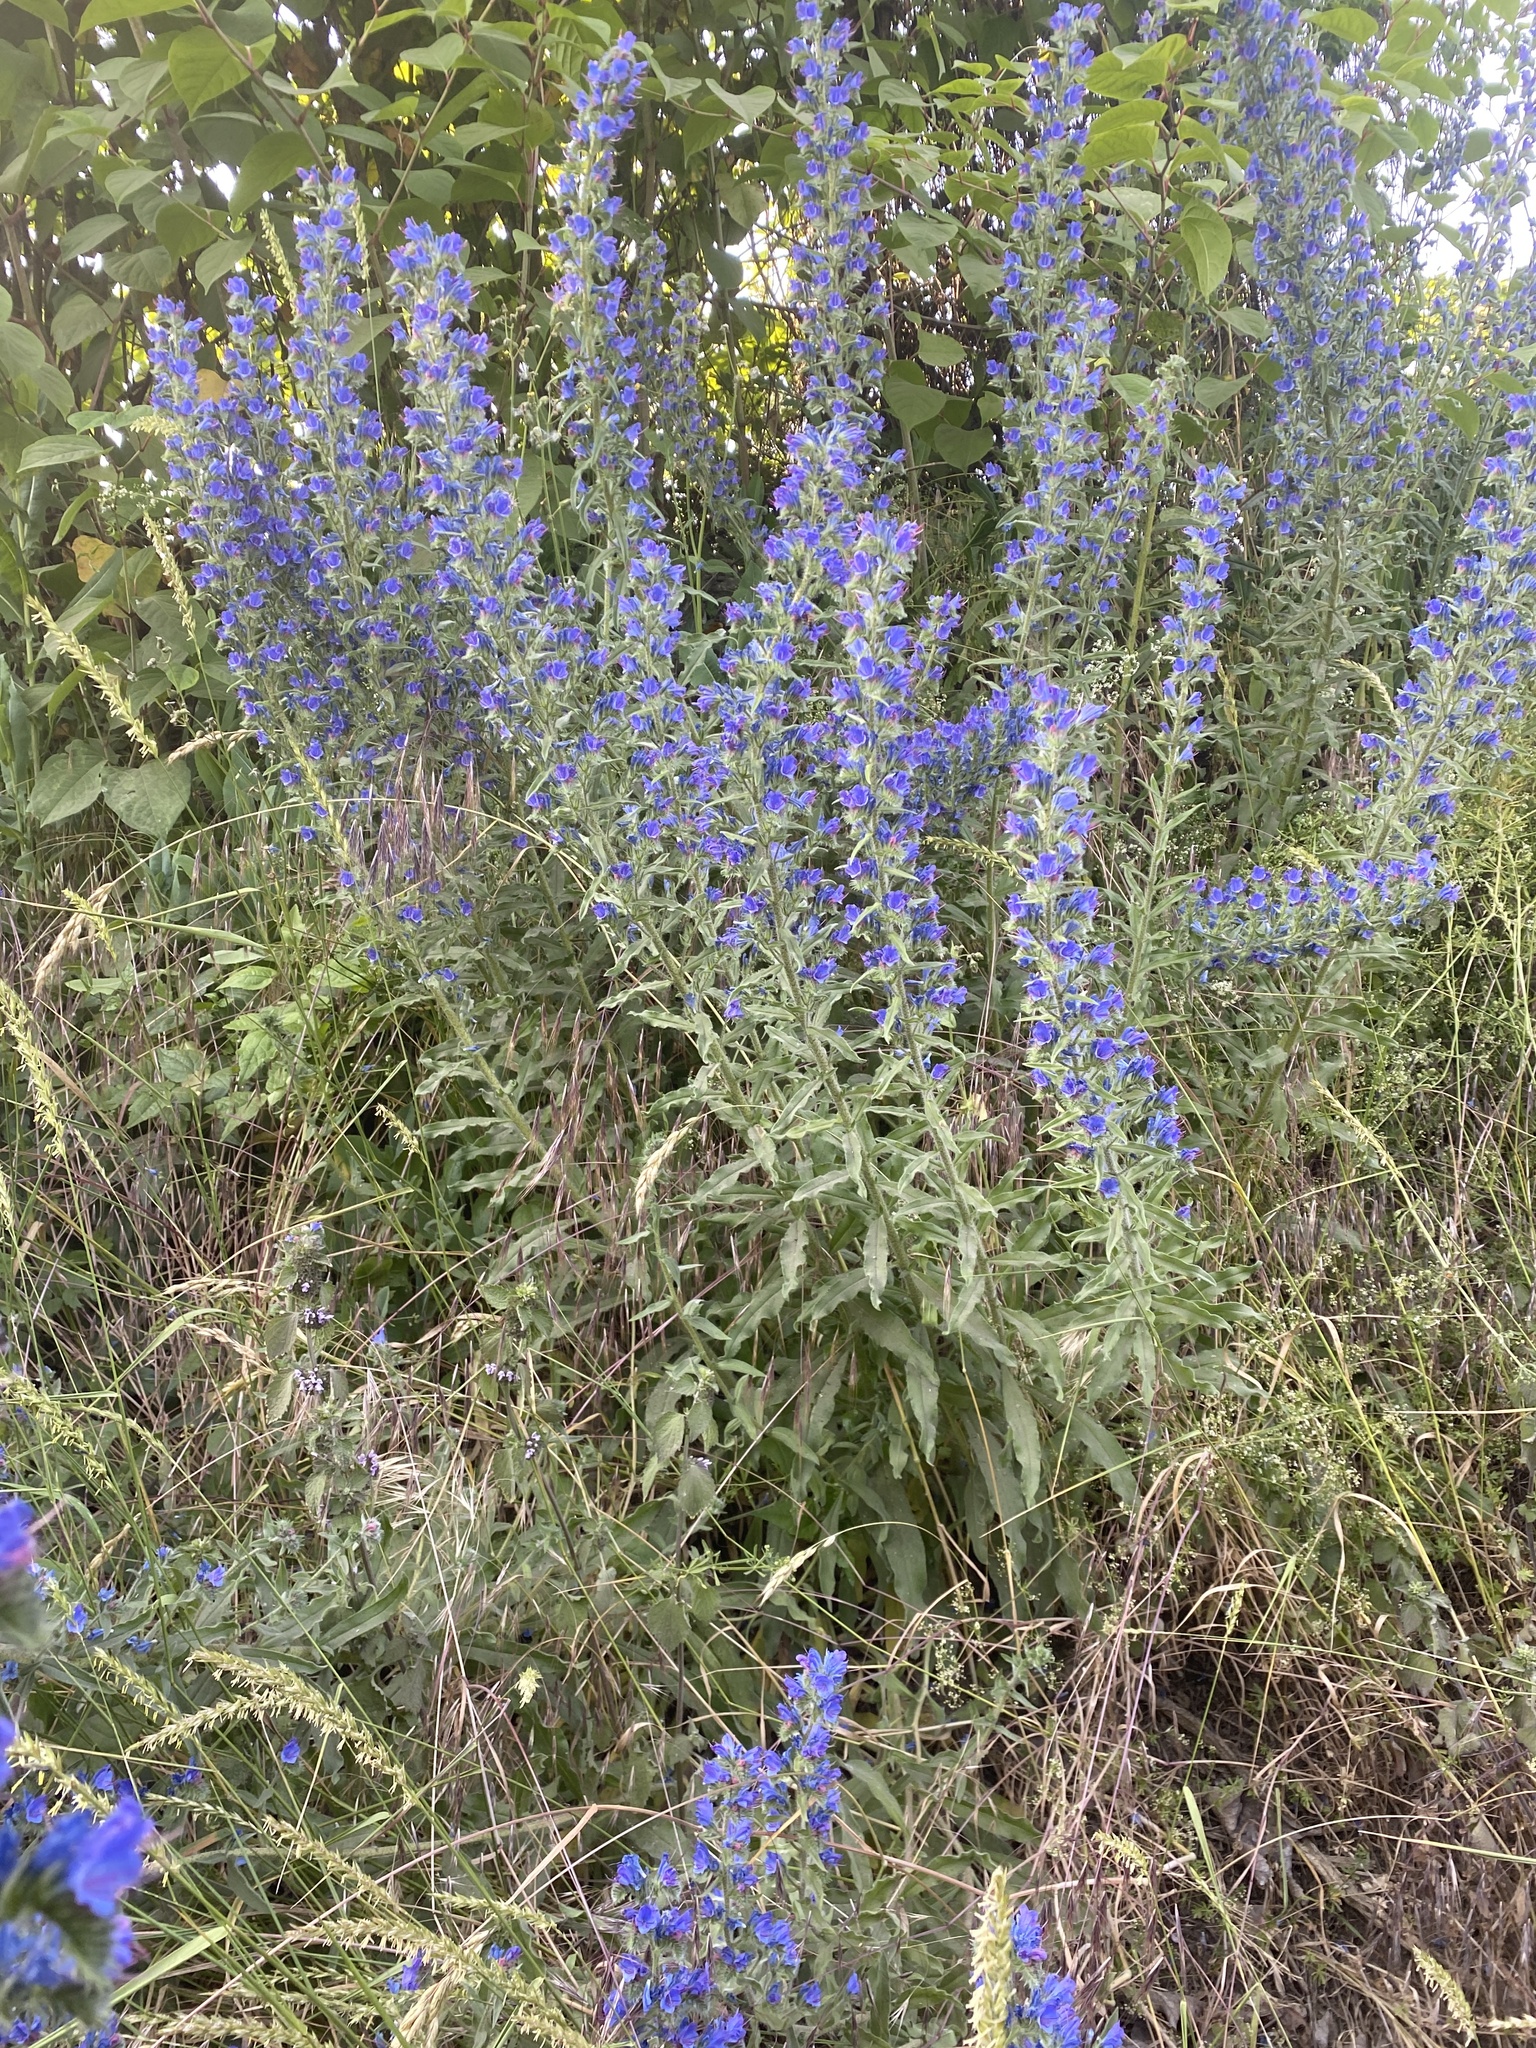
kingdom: Plantae
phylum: Tracheophyta
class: Magnoliopsida
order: Boraginales
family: Boraginaceae
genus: Echium
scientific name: Echium vulgare
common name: Common viper's bugloss
